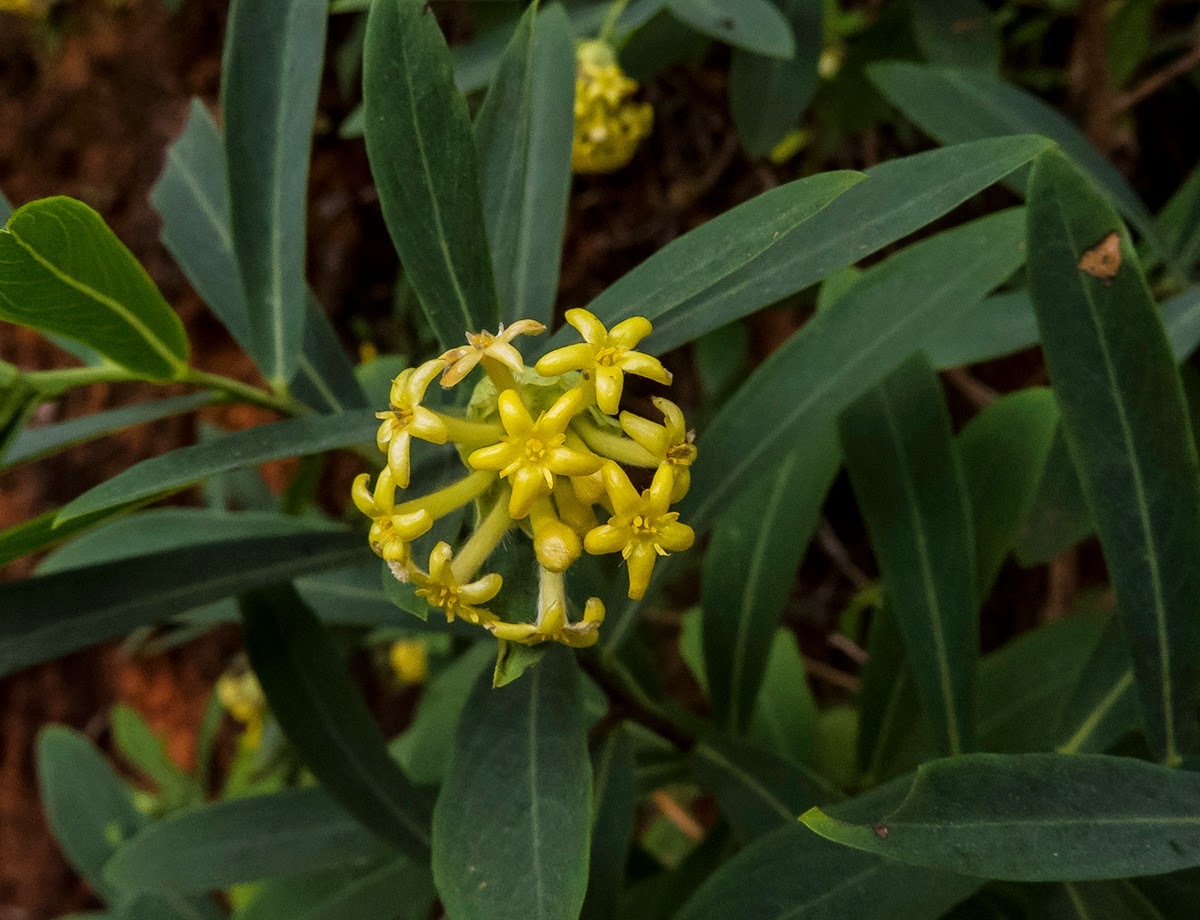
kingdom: Plantae
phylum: Tracheophyta
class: Magnoliopsida
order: Malvales
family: Thymelaeaceae
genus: Gnidia
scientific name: Gnidia glauca
